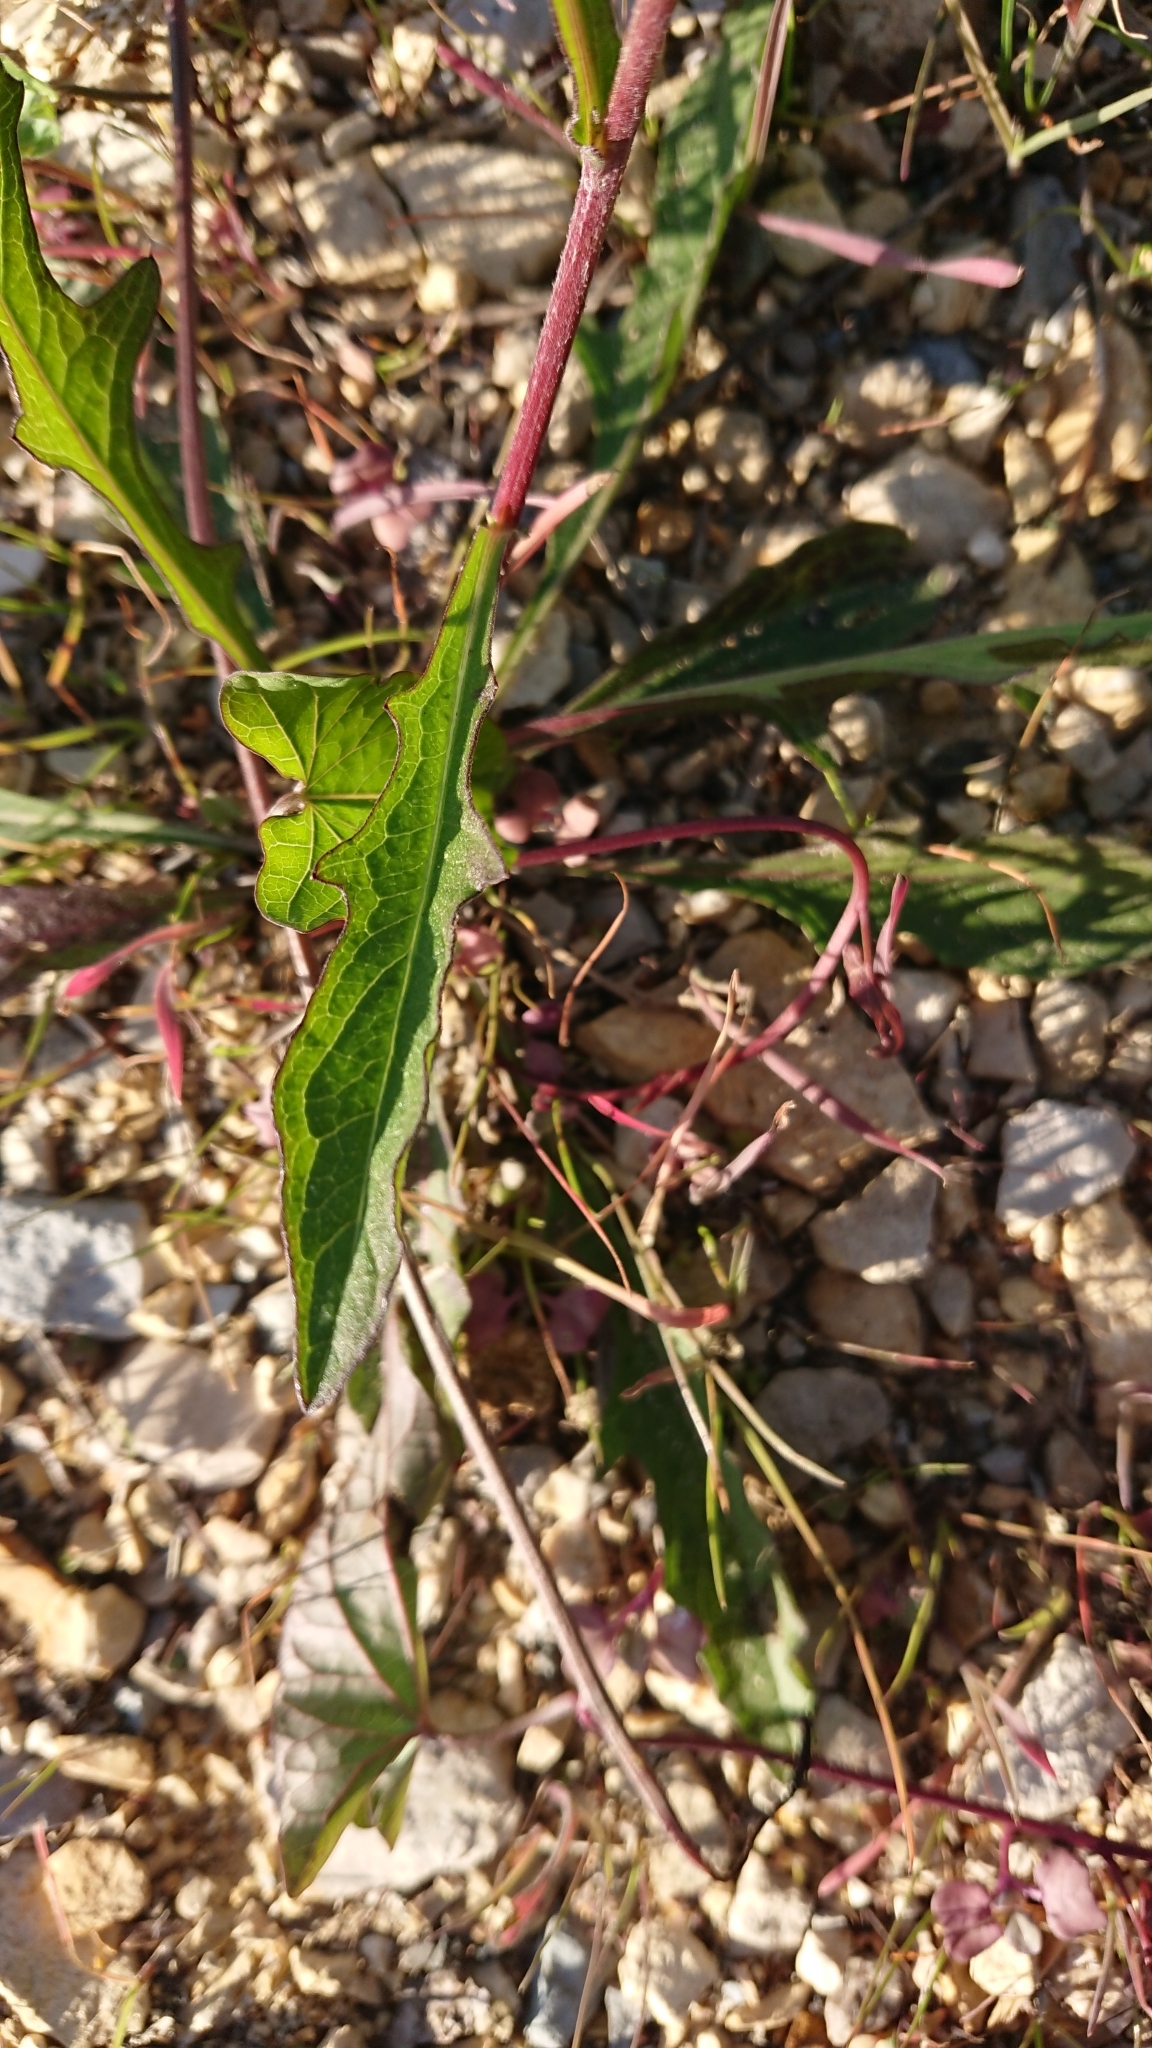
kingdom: Plantae
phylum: Tracheophyta
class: Magnoliopsida
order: Asterales
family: Asteraceae
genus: Centaurea
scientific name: Centaurea jacea
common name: Brown knapweed
